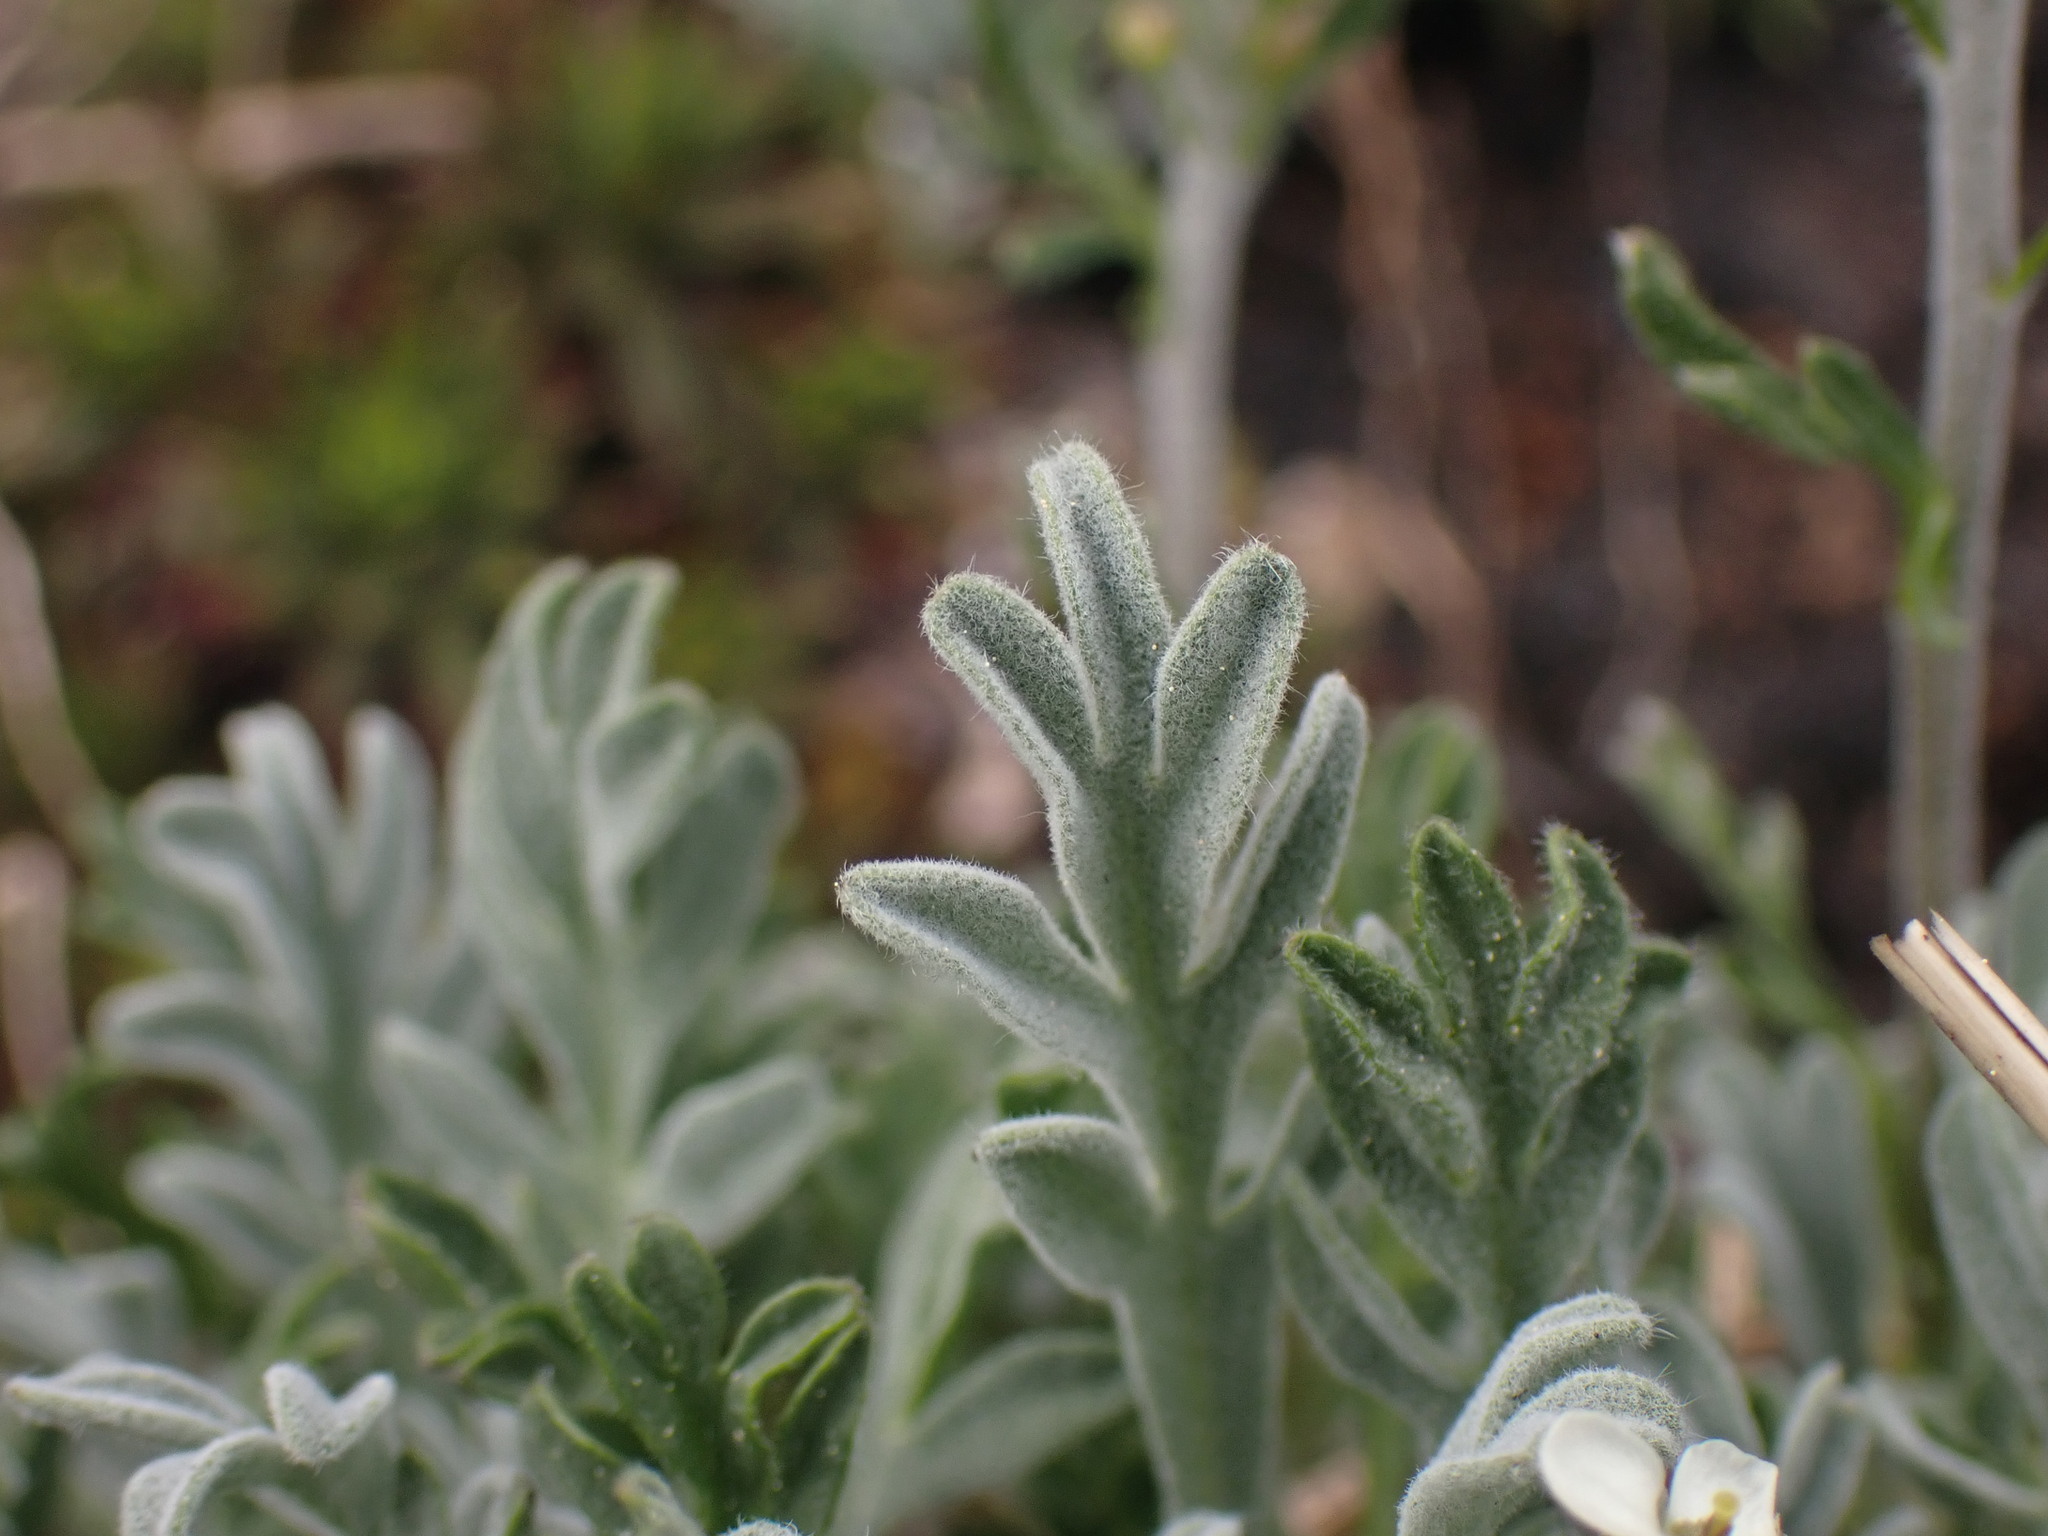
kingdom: Plantae
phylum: Tracheophyta
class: Magnoliopsida
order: Brassicales
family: Brassicaceae
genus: Smelowskia
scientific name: Smelowskia americana
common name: American false candytuft
